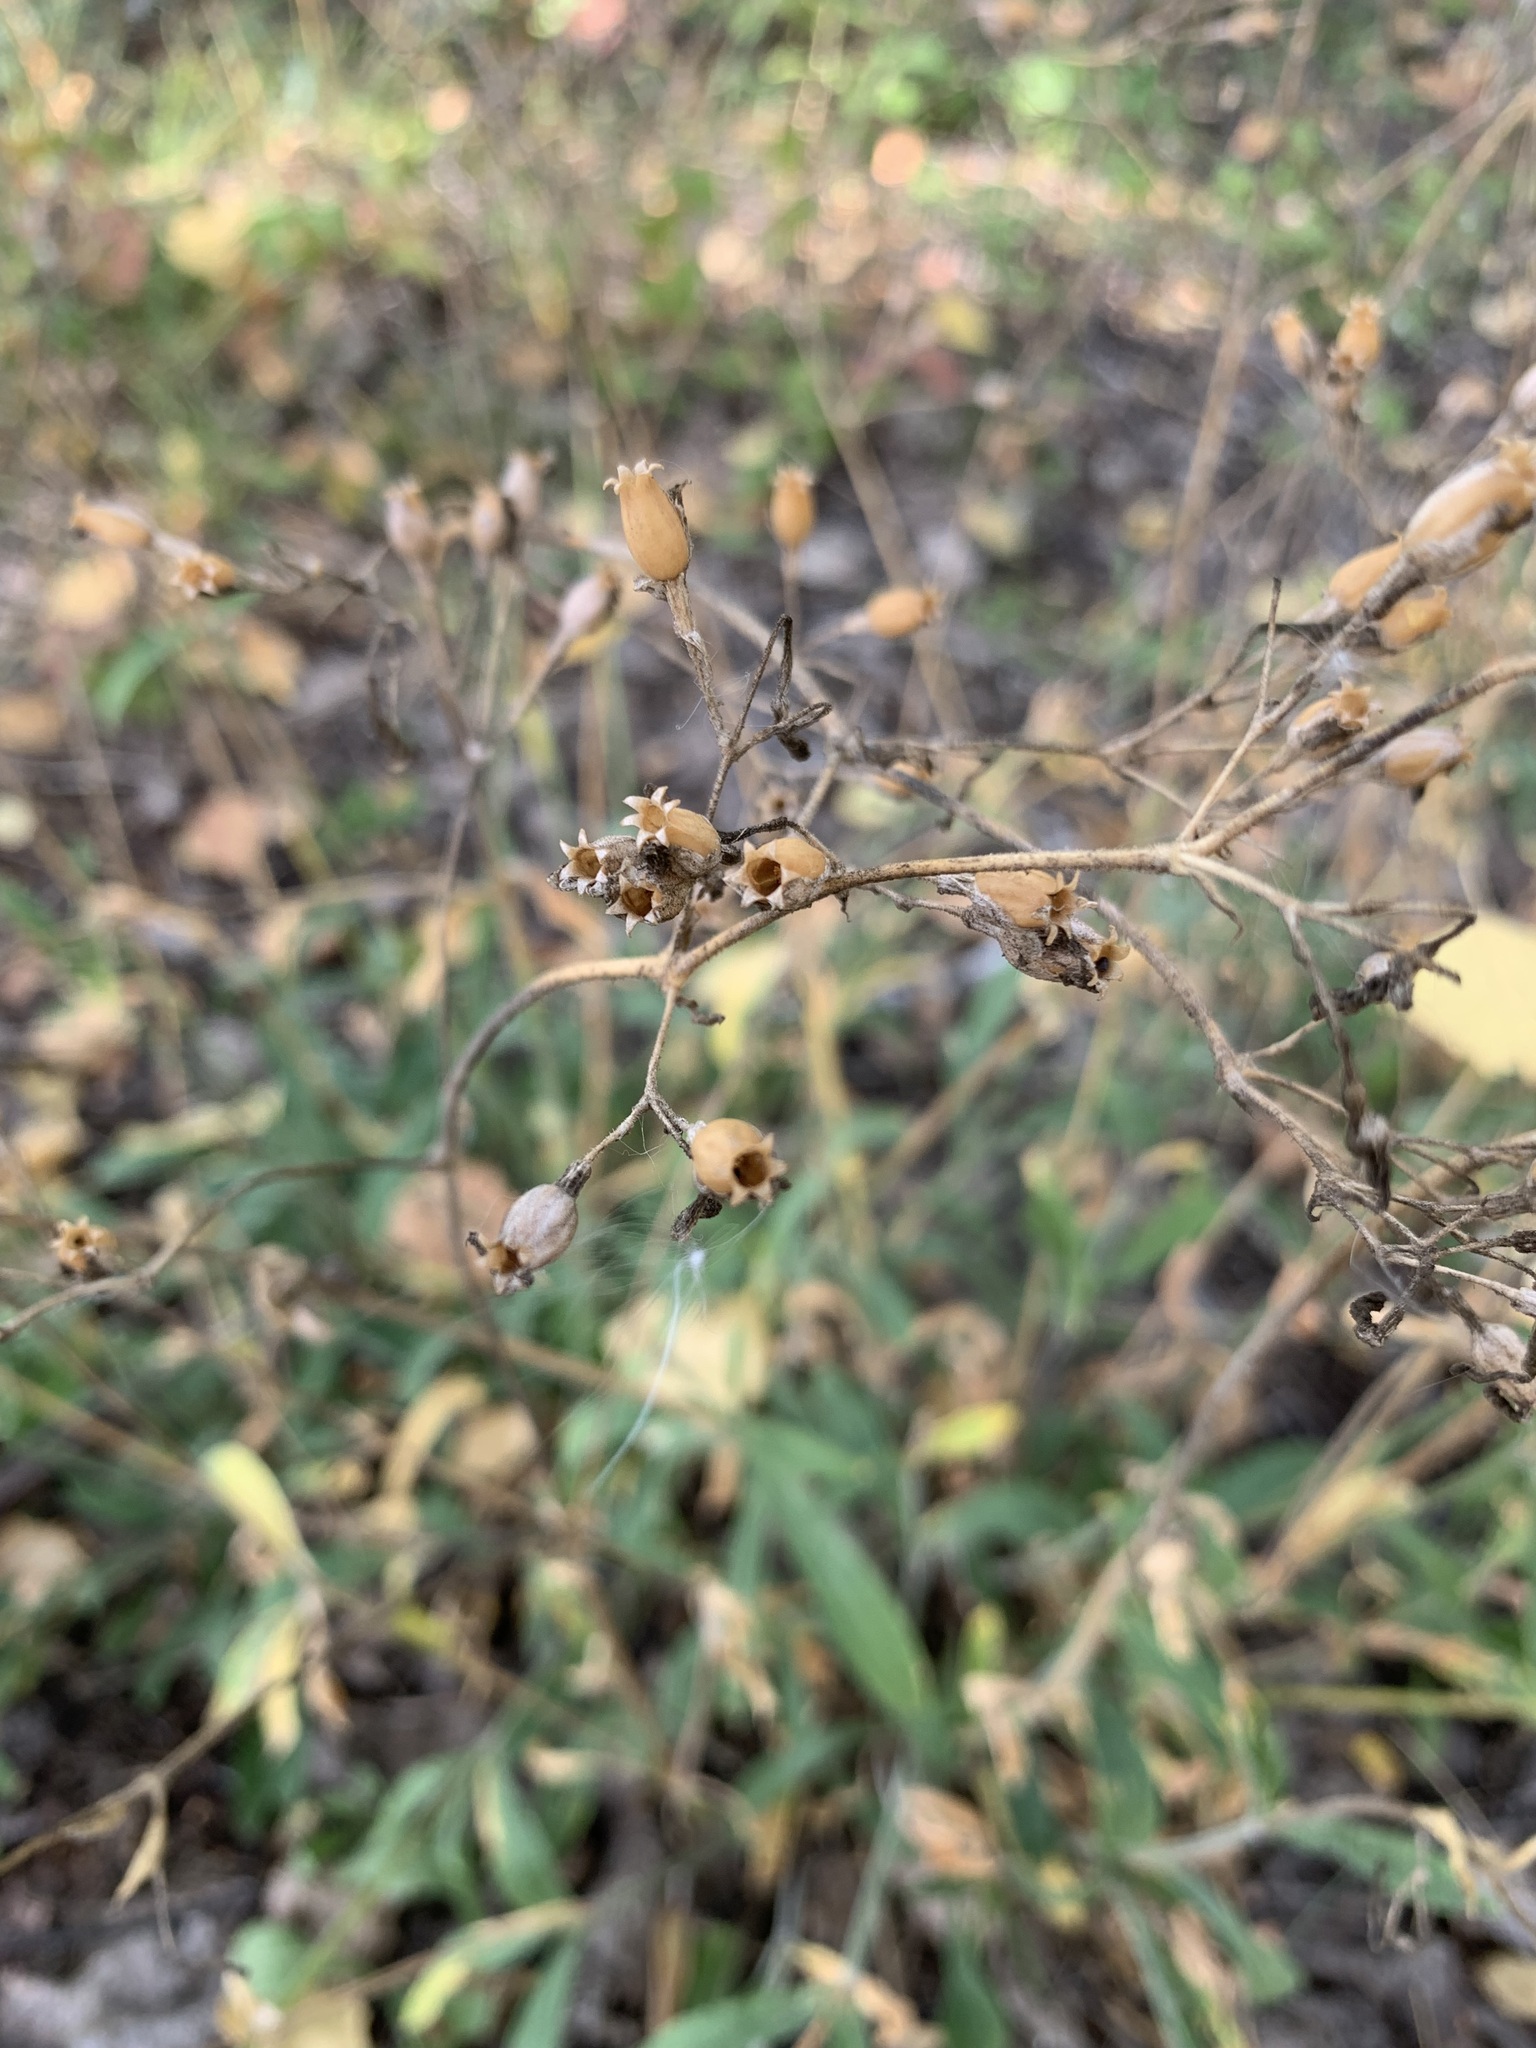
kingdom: Plantae
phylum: Tracheophyta
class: Magnoliopsida
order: Caryophyllales
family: Caryophyllaceae
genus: Silene
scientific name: Silene nutans
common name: Nottingham catchfly
